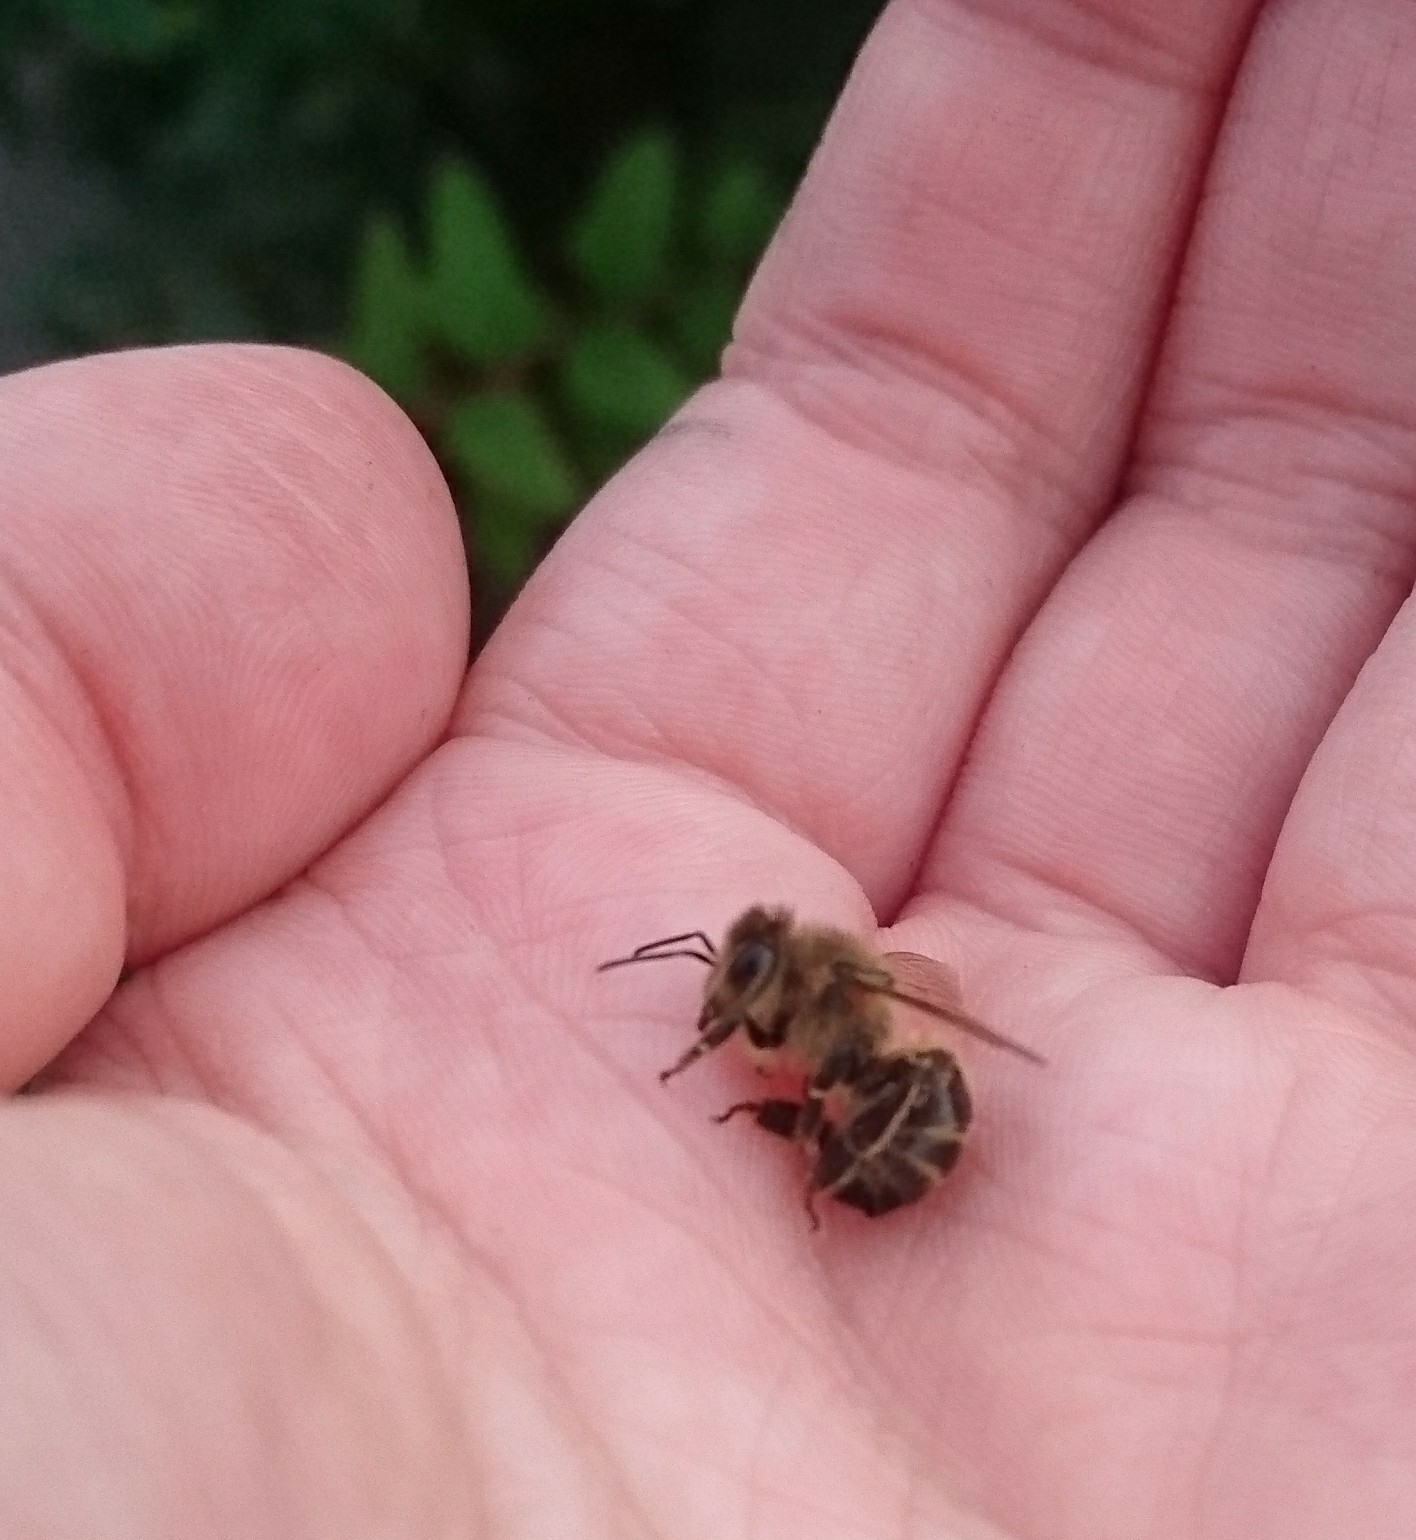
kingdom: Animalia
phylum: Arthropoda
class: Insecta
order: Hymenoptera
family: Apidae
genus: Apis
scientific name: Apis mellifera
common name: Honey bee
